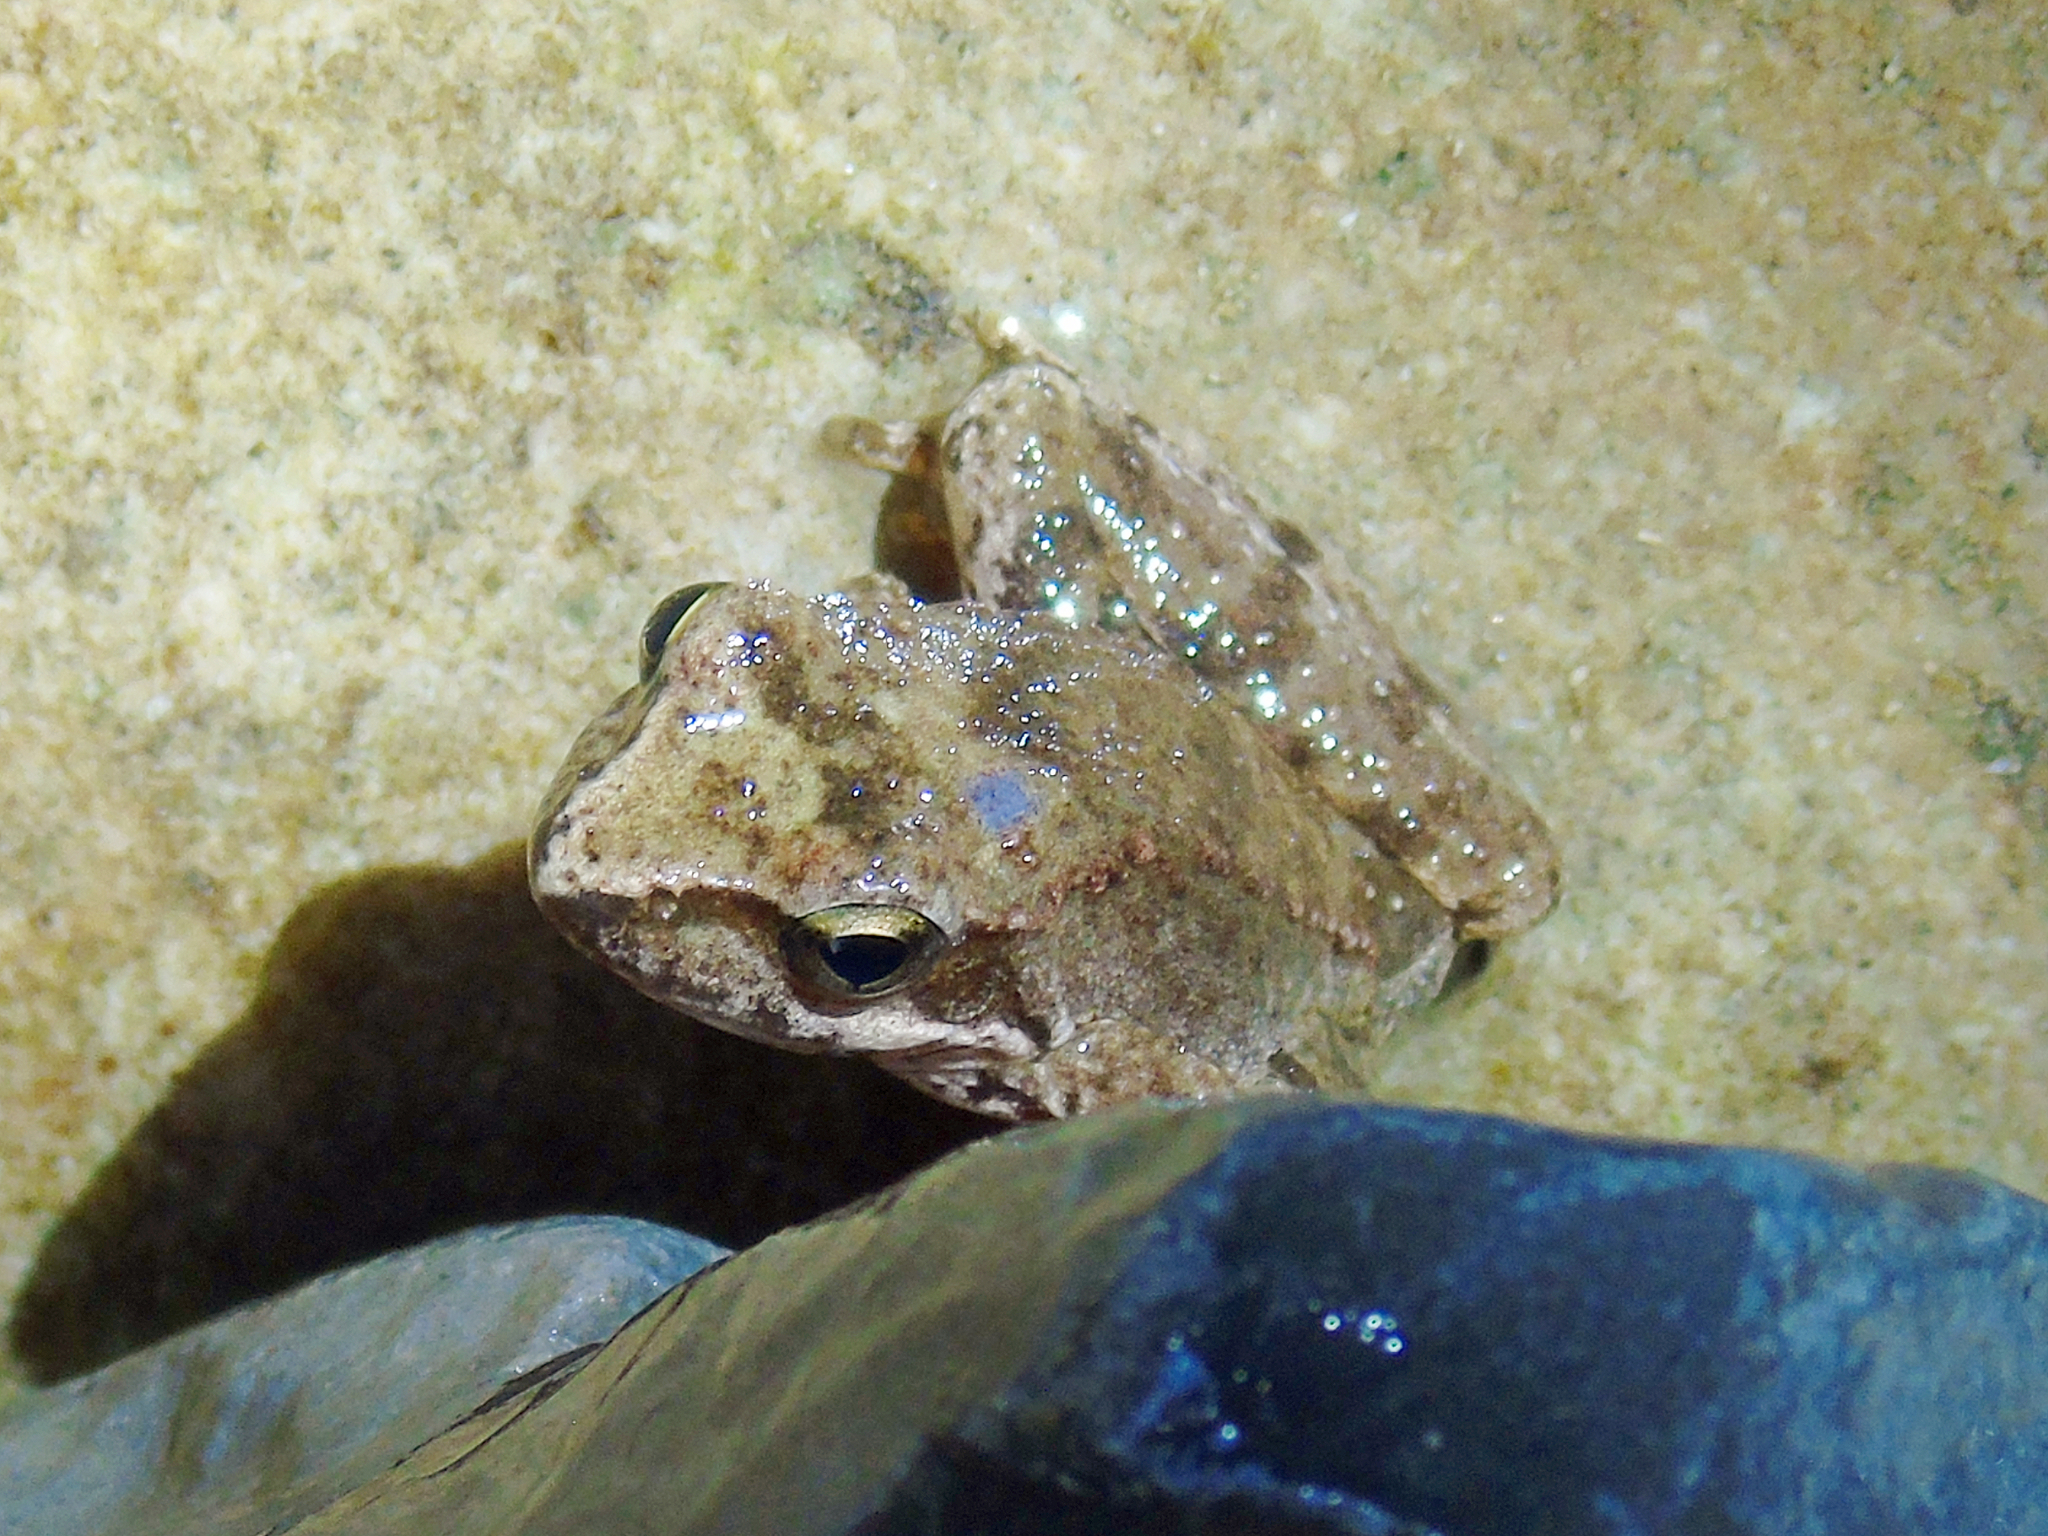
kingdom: Animalia
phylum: Chordata
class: Amphibia
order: Anura
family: Ranidae
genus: Rana
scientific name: Rana graeca
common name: Greek stream frog
